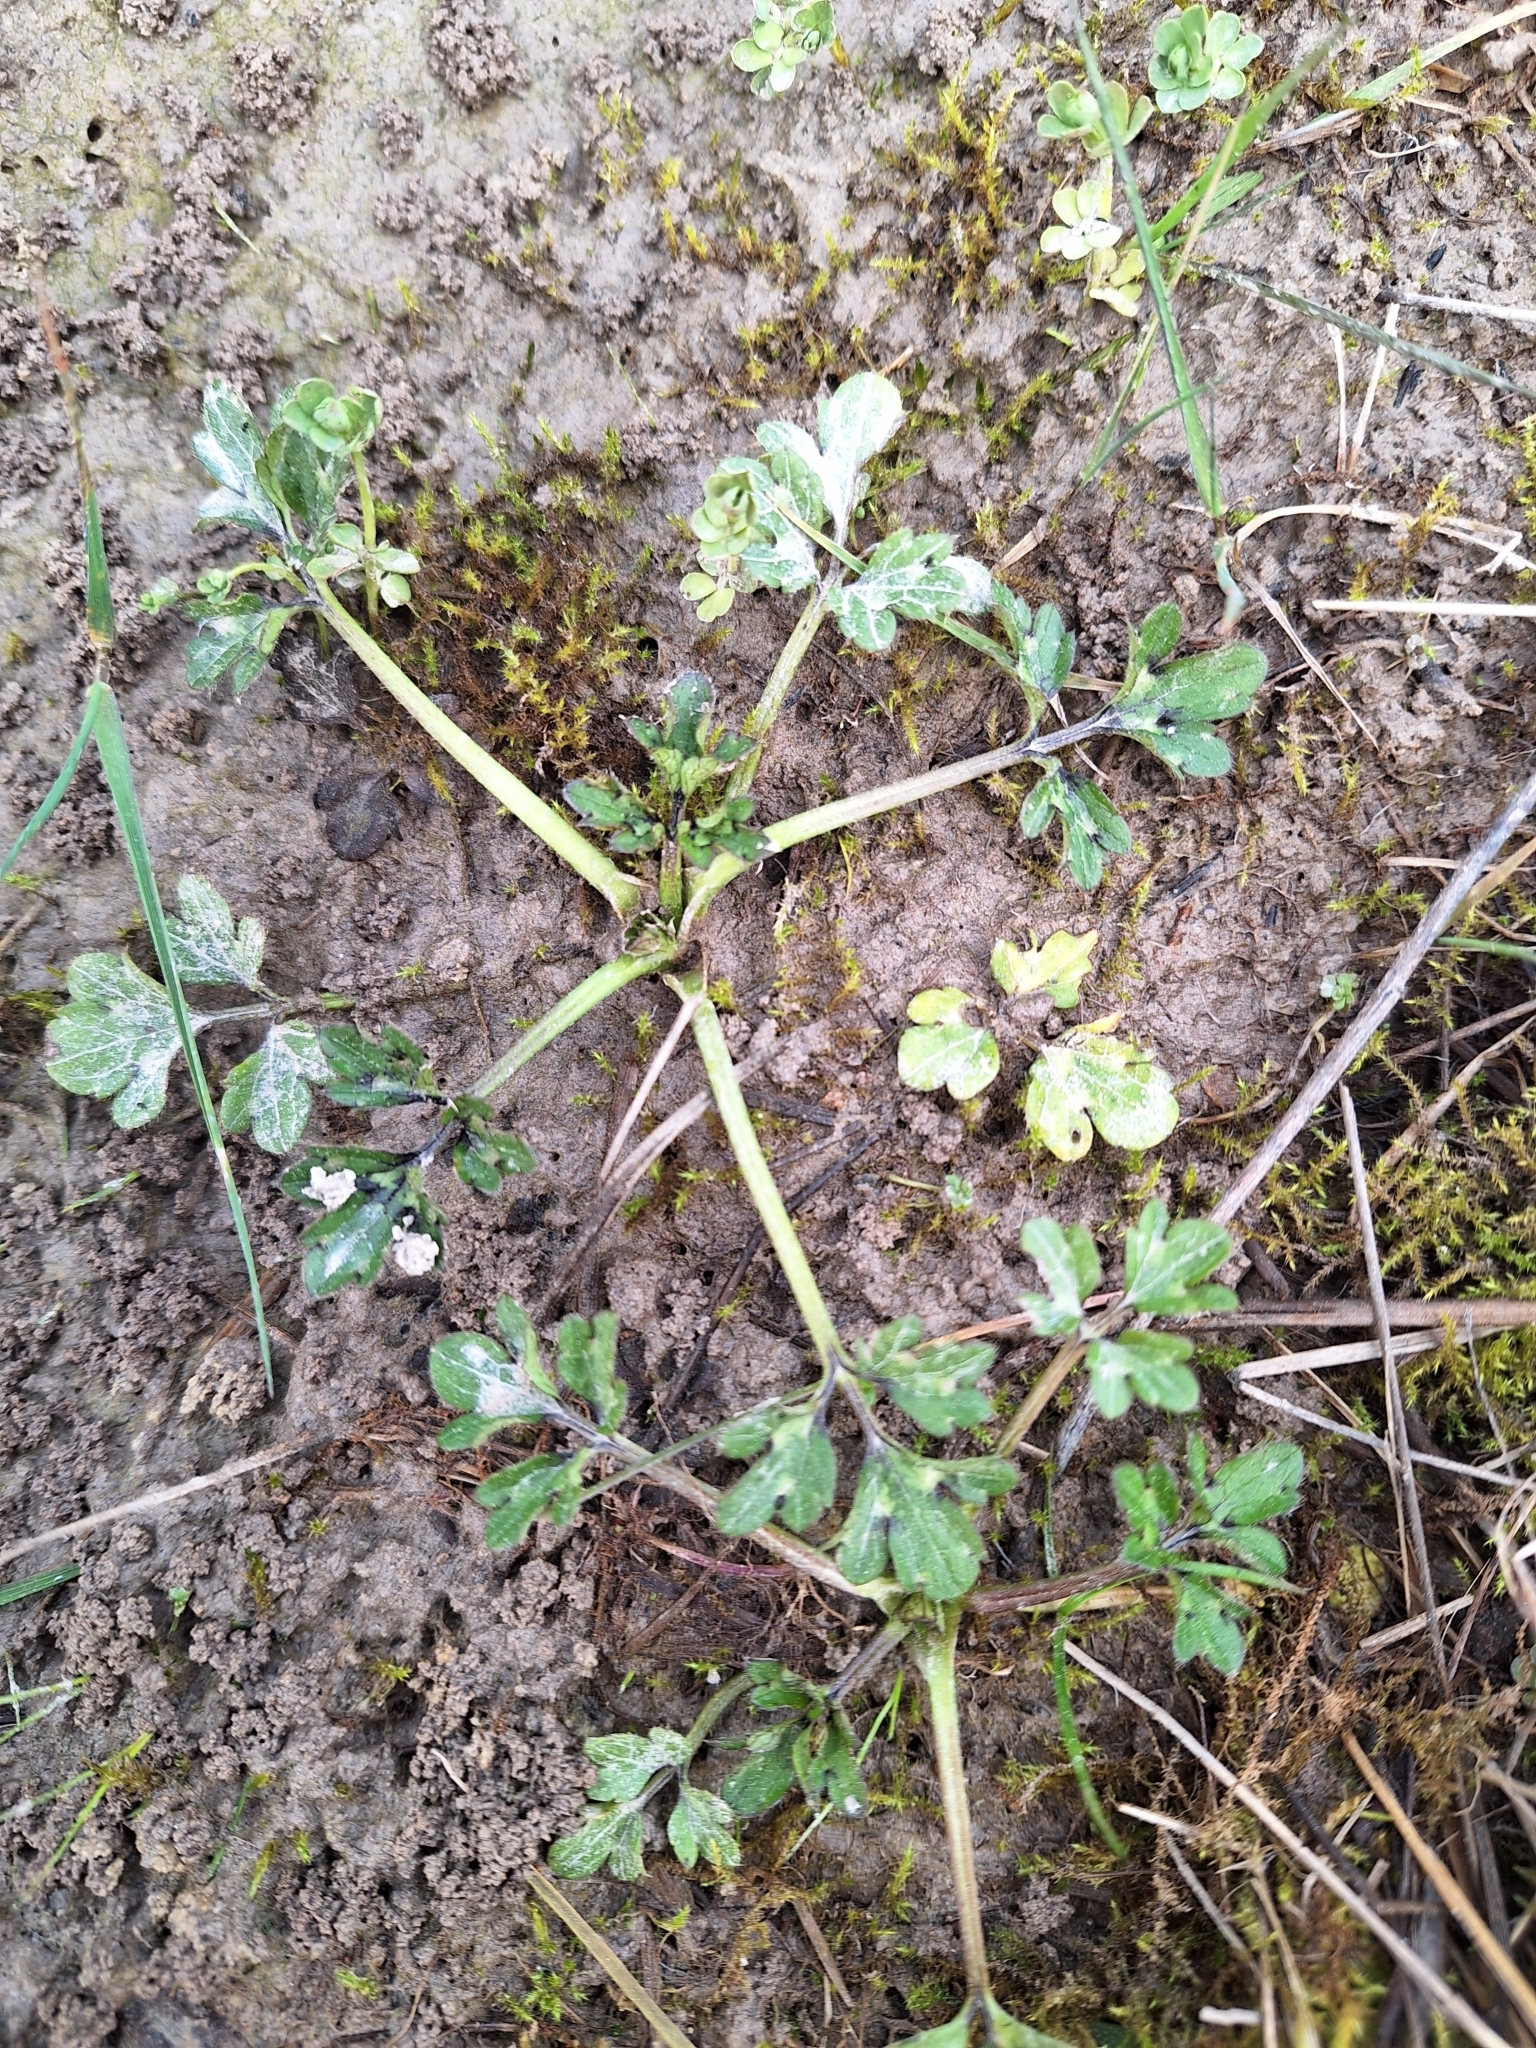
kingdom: Plantae
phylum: Tracheophyta
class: Magnoliopsida
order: Ranunculales
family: Ranunculaceae
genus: Ranunculus
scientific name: Ranunculus repens
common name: Creeping buttercup
